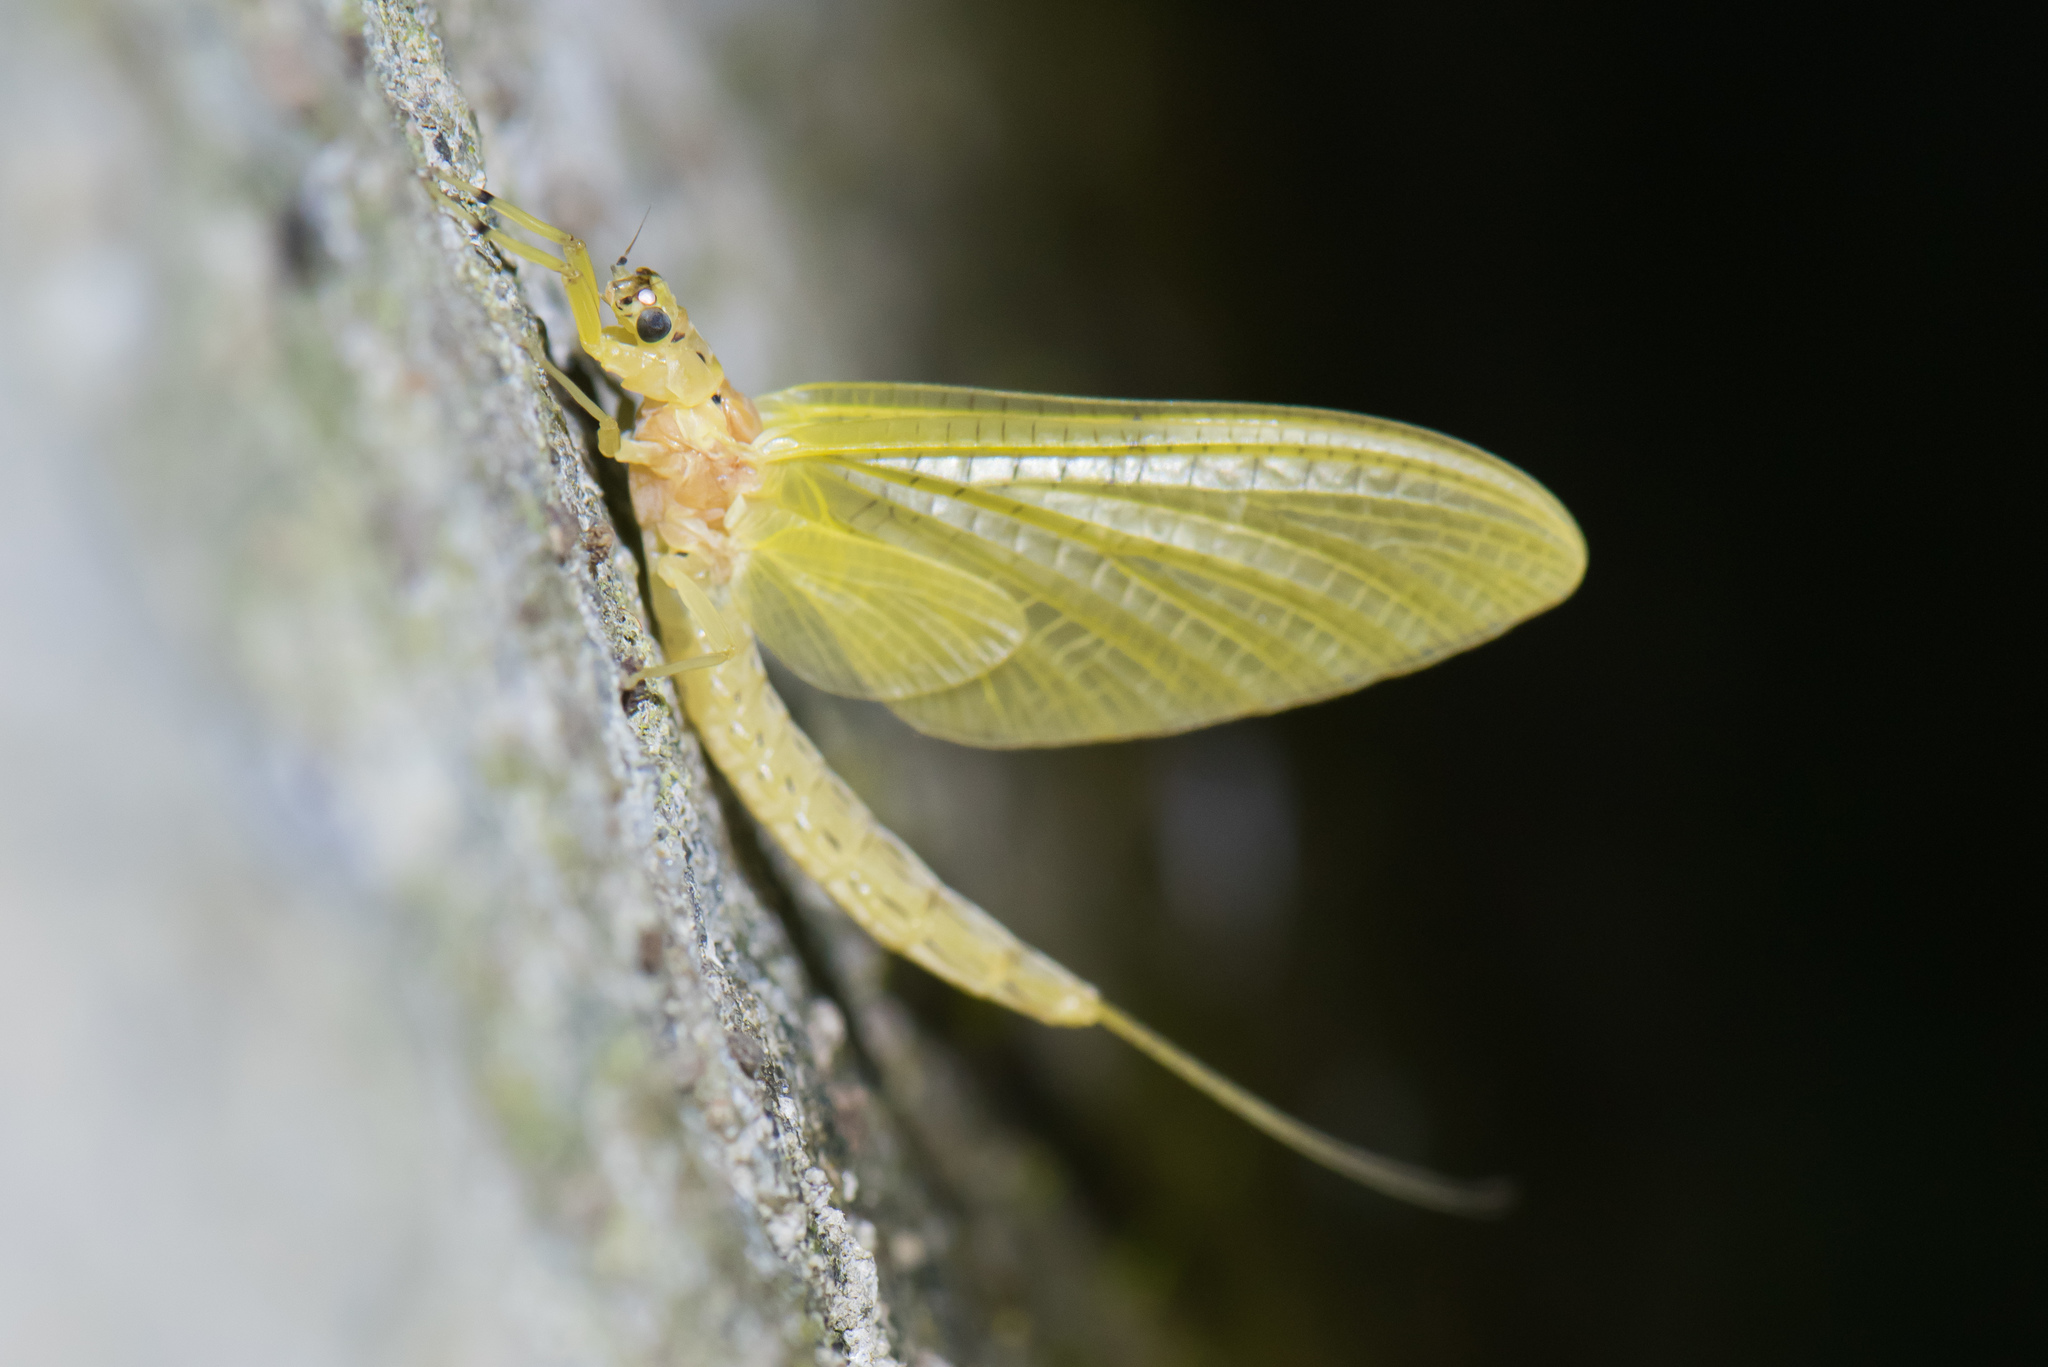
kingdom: Animalia
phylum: Arthropoda
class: Insecta
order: Ephemeroptera
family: Ephemeridae
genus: Ephemera
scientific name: Ephemera orientalis
